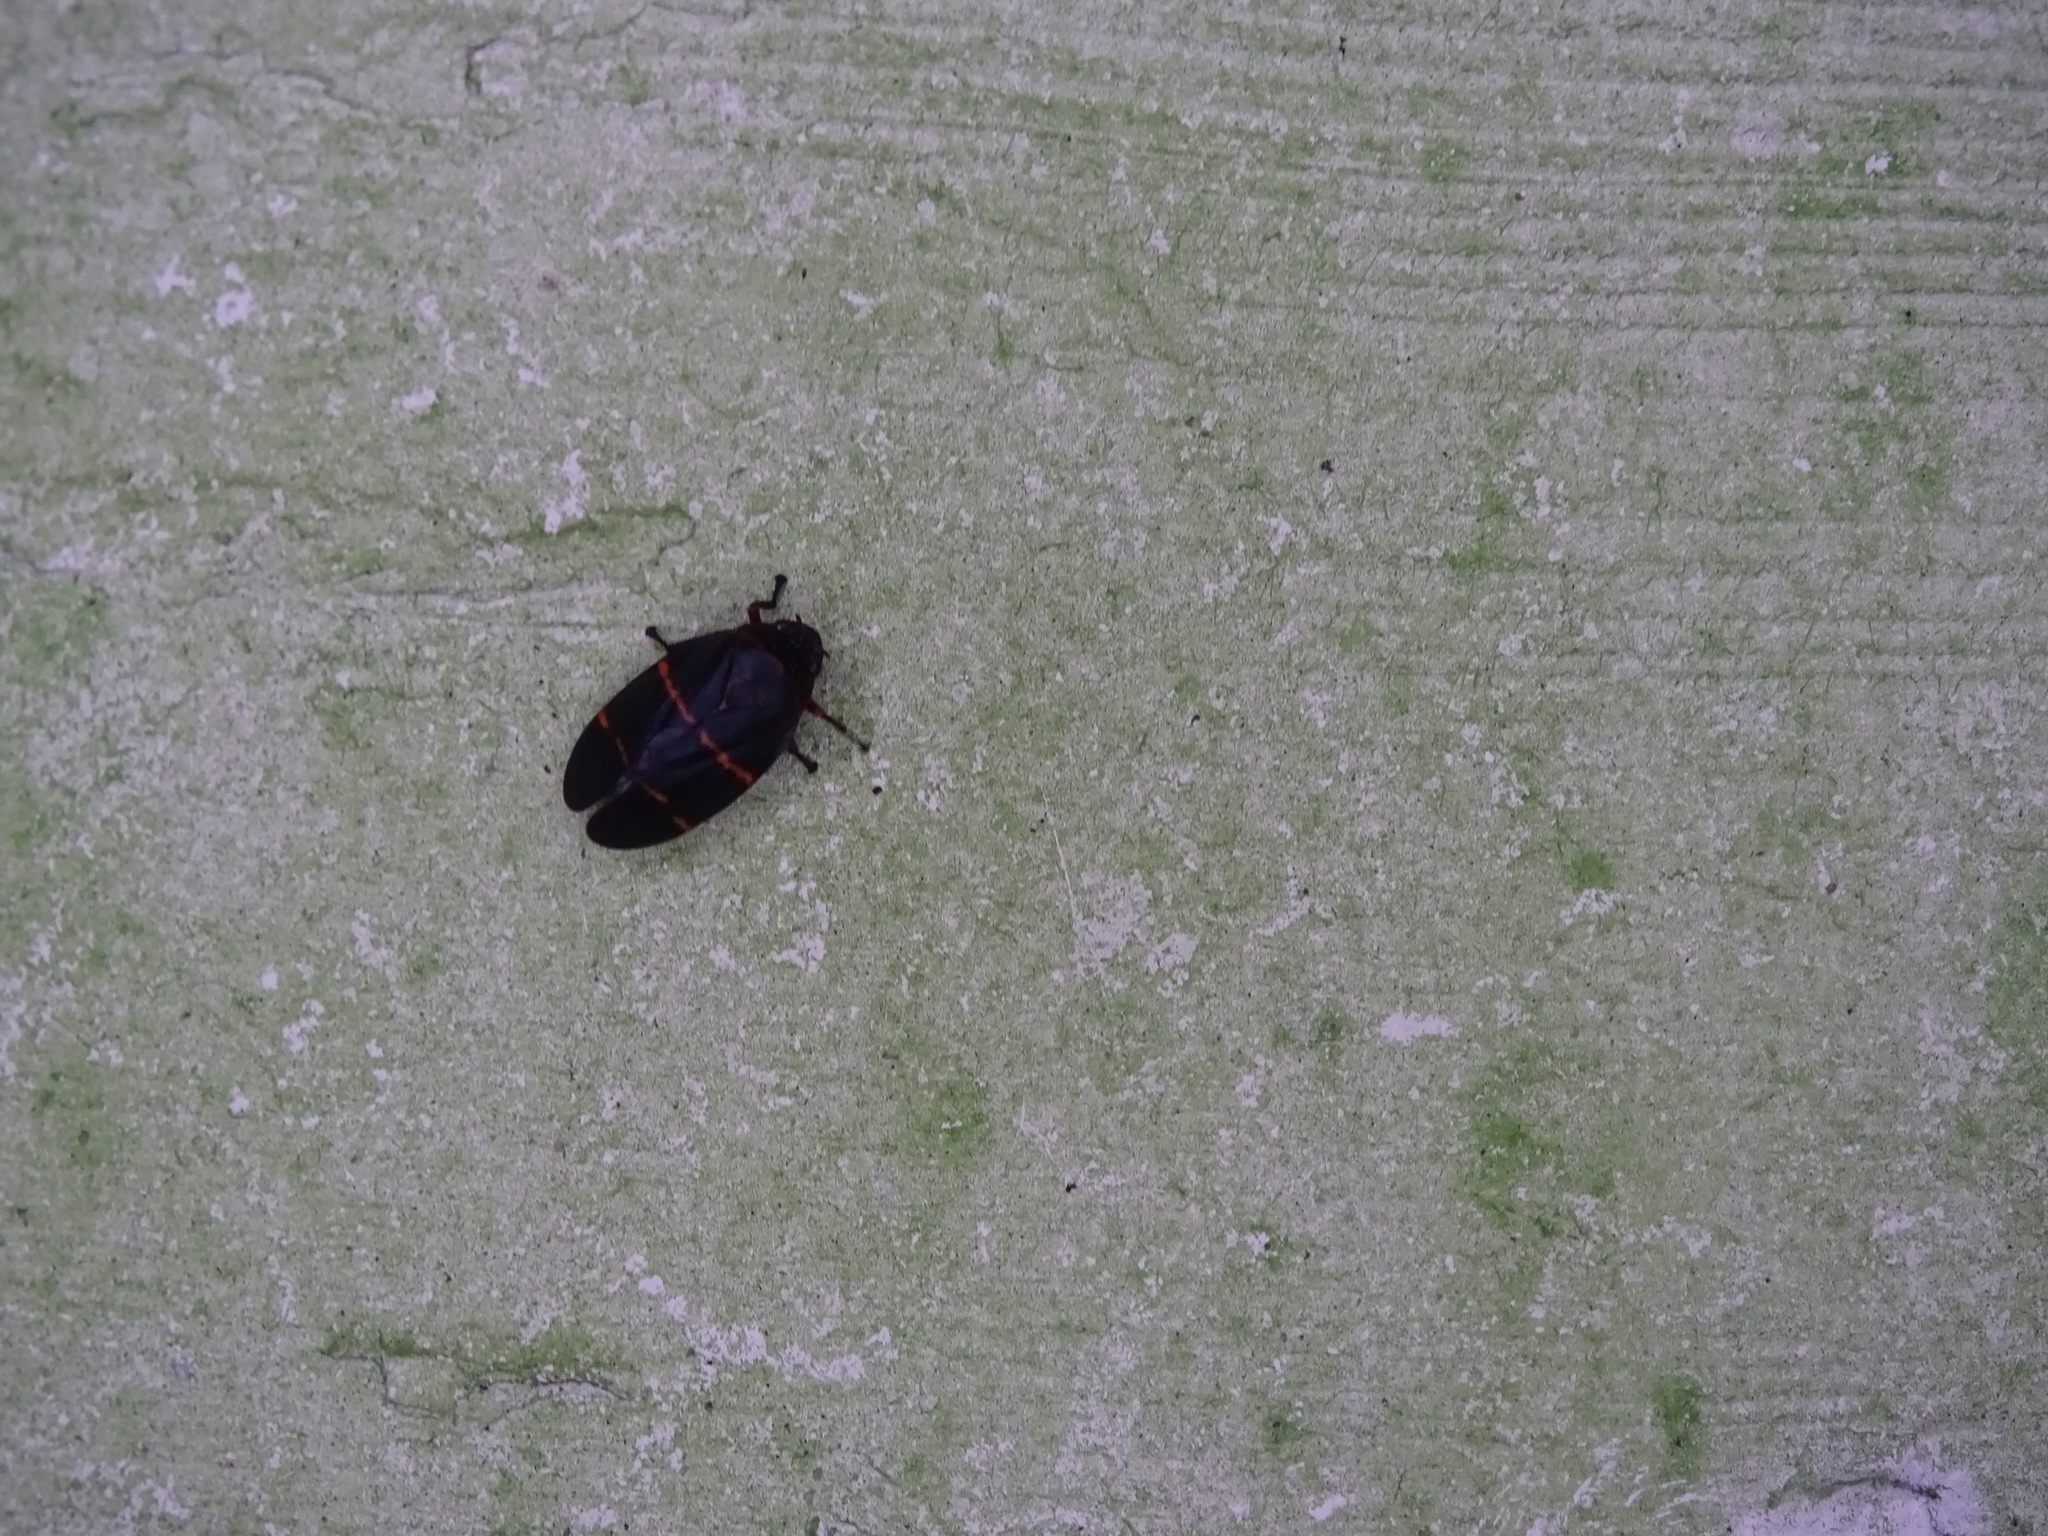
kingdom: Animalia
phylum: Arthropoda
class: Insecta
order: Hemiptera
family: Cercopidae
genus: Prosapia
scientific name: Prosapia bicincta
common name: Twolined spittlebug
